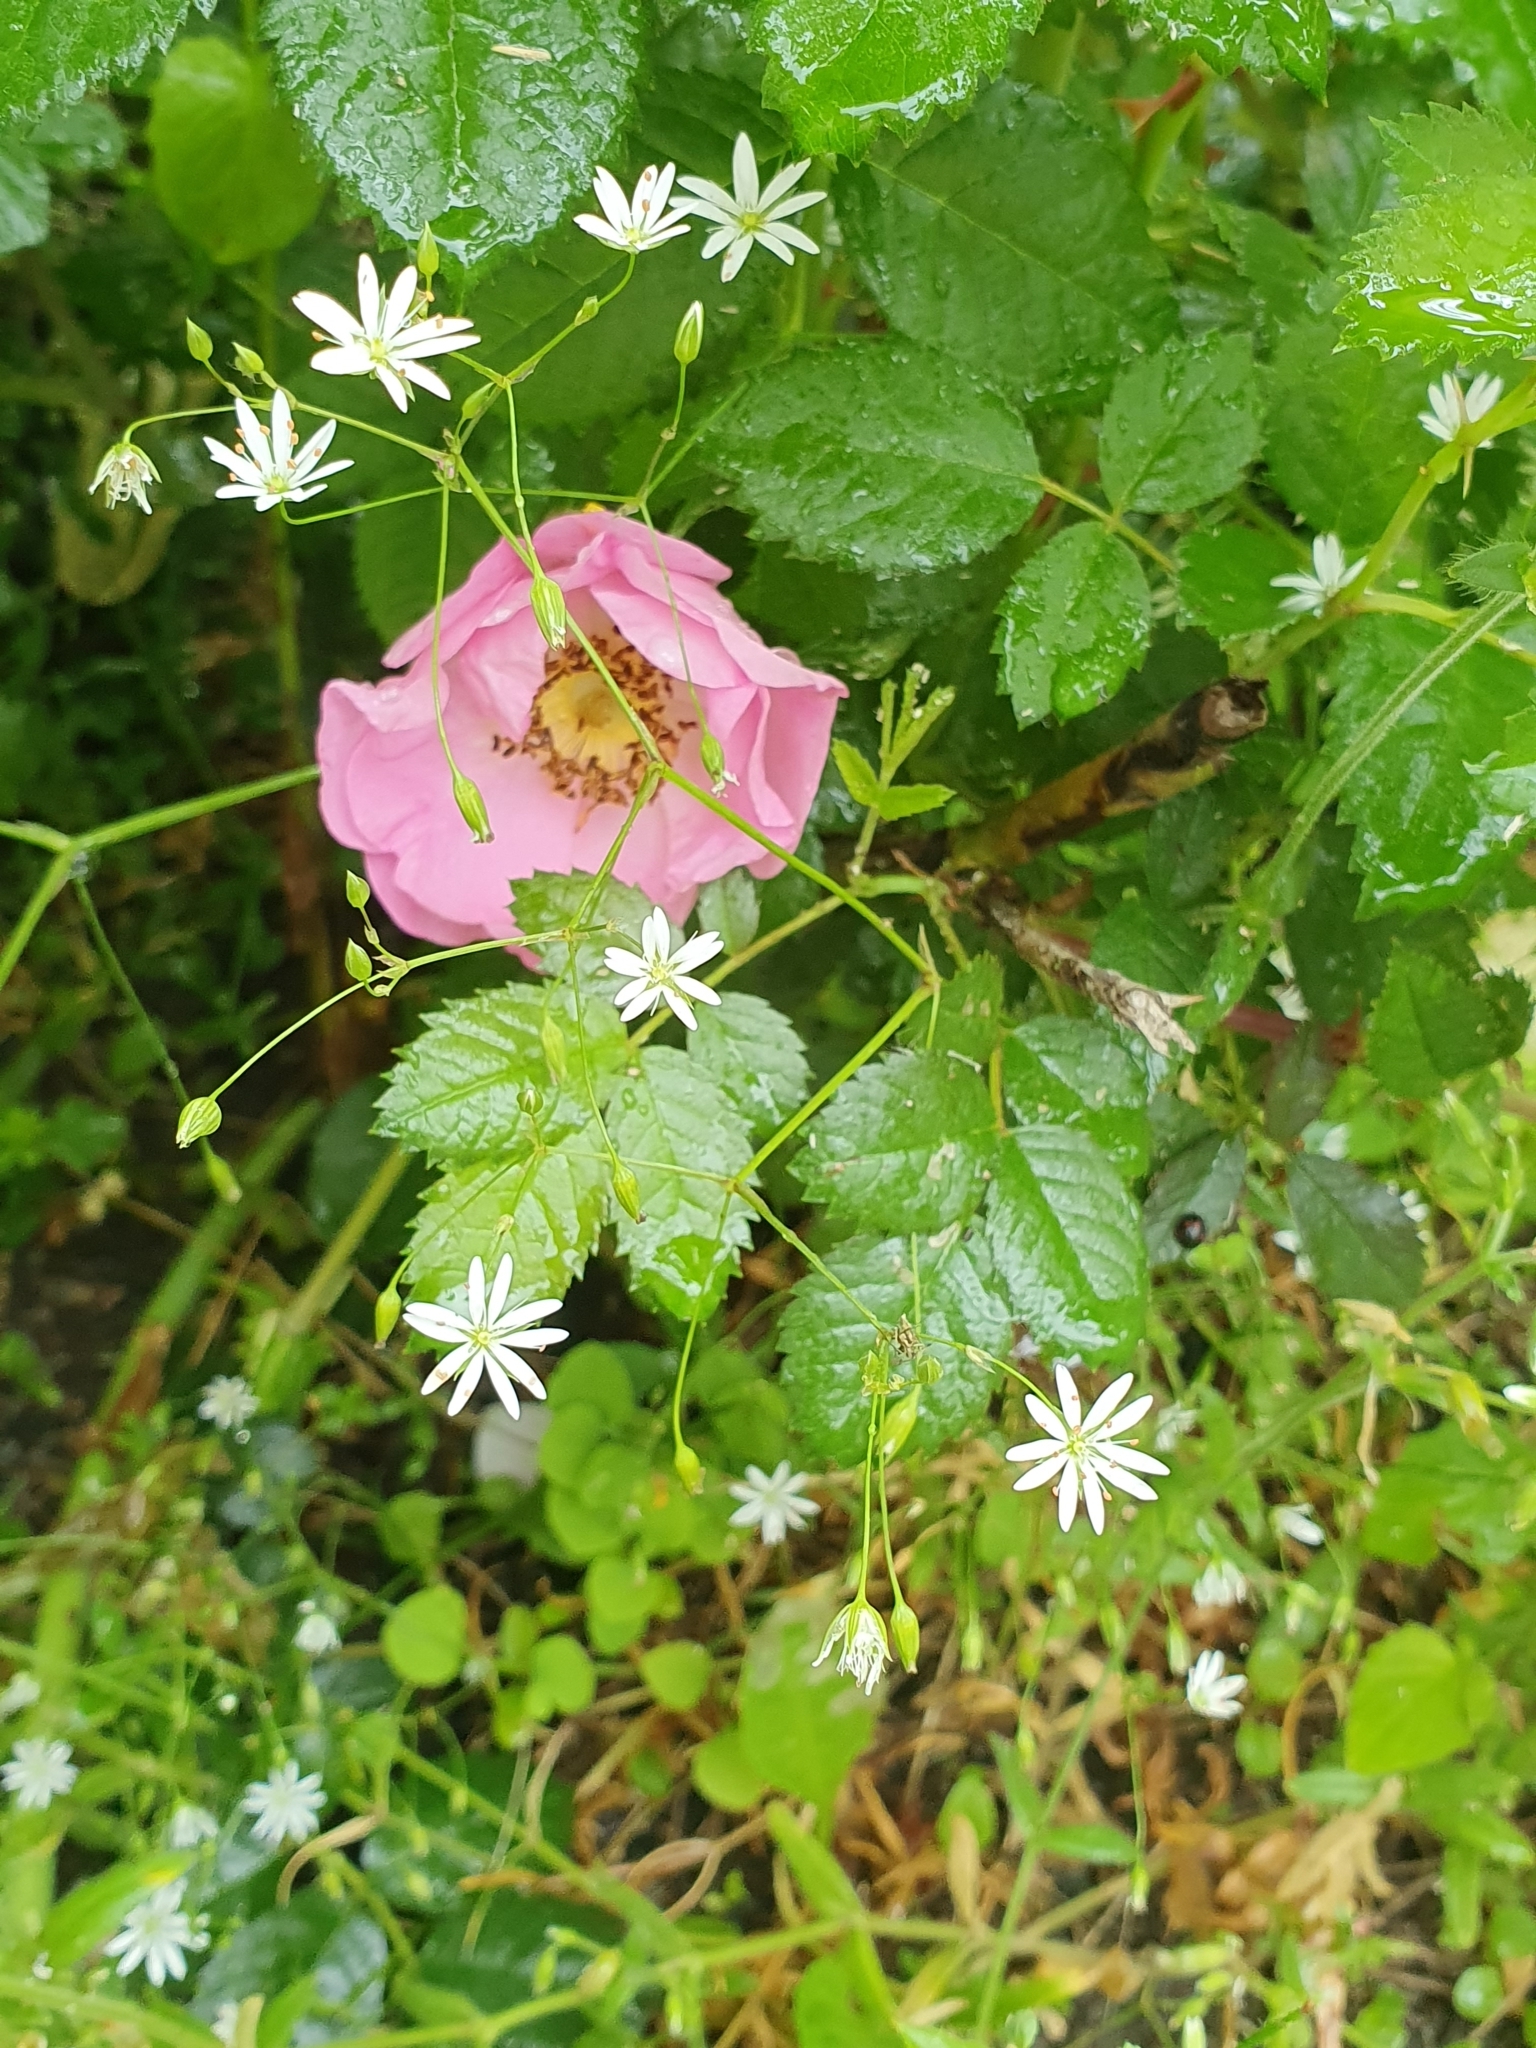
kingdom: Plantae
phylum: Tracheophyta
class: Magnoliopsida
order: Caryophyllales
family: Caryophyllaceae
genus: Stellaria
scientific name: Stellaria graminea
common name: Grass-like starwort
